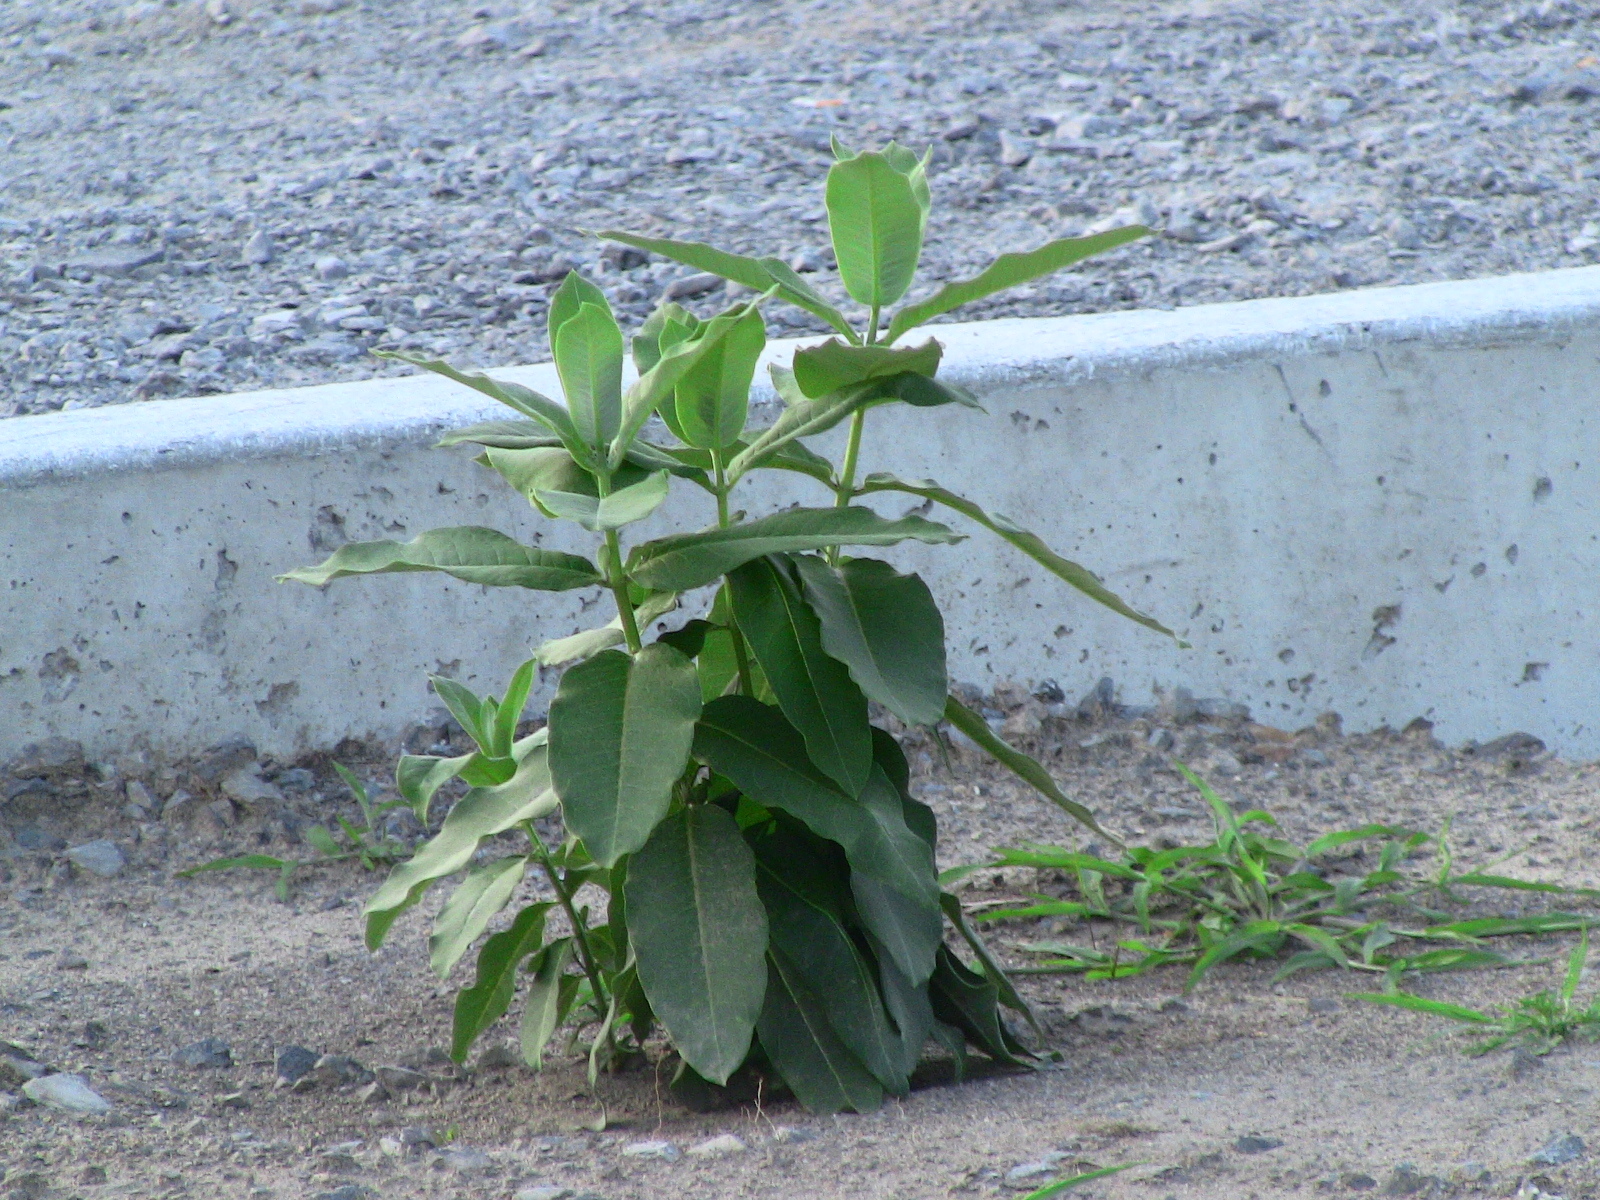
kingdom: Plantae
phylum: Tracheophyta
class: Magnoliopsida
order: Gentianales
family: Apocynaceae
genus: Asclepias
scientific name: Asclepias syriaca
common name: Common milkweed
